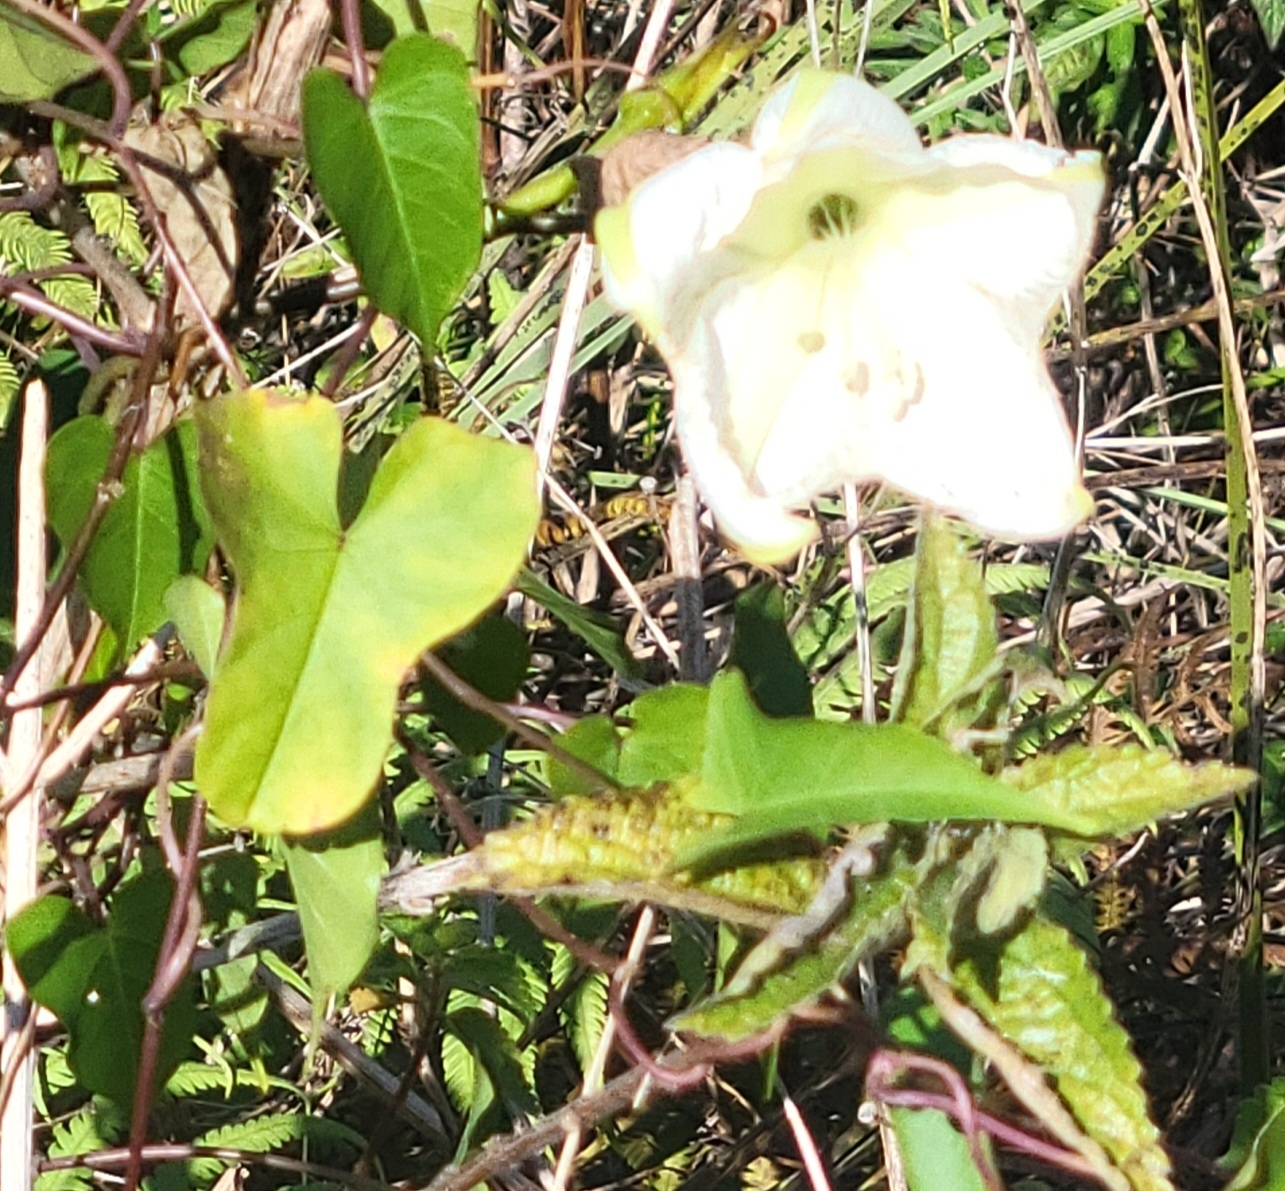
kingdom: Plantae
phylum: Tracheophyta
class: Magnoliopsida
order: Solanales
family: Convolvulaceae
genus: Ipomoea
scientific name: Ipomoea alba
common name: Moonflower
